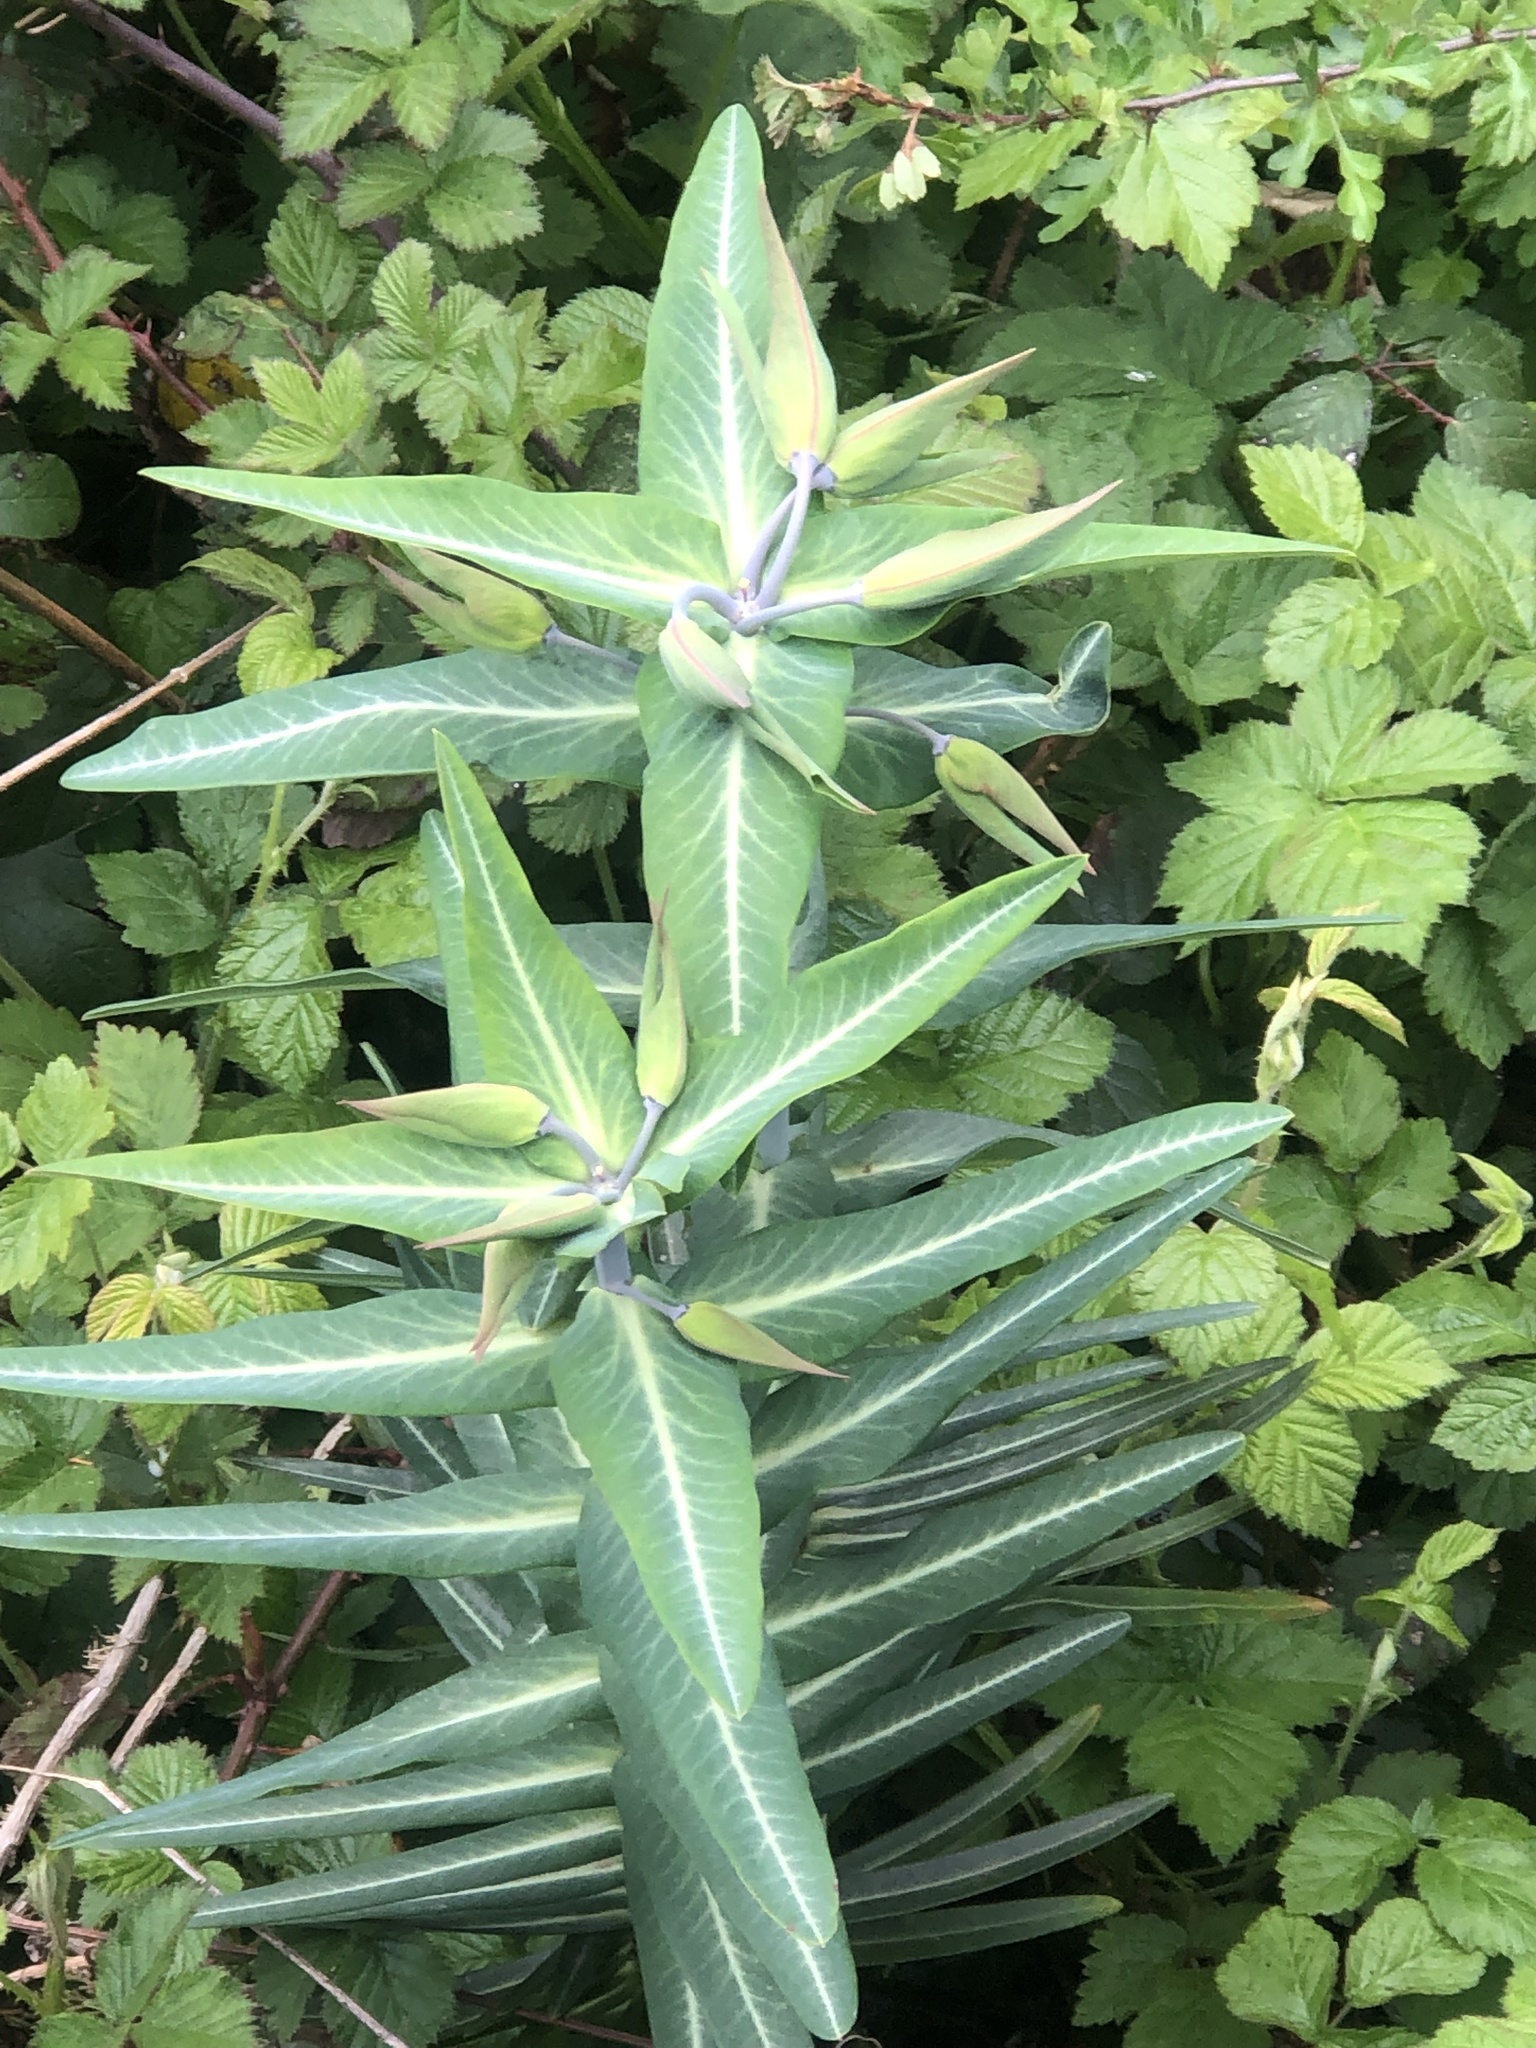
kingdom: Plantae
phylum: Tracheophyta
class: Magnoliopsida
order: Malpighiales
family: Euphorbiaceae
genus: Euphorbia
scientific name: Euphorbia lathyris
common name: Caper spurge
